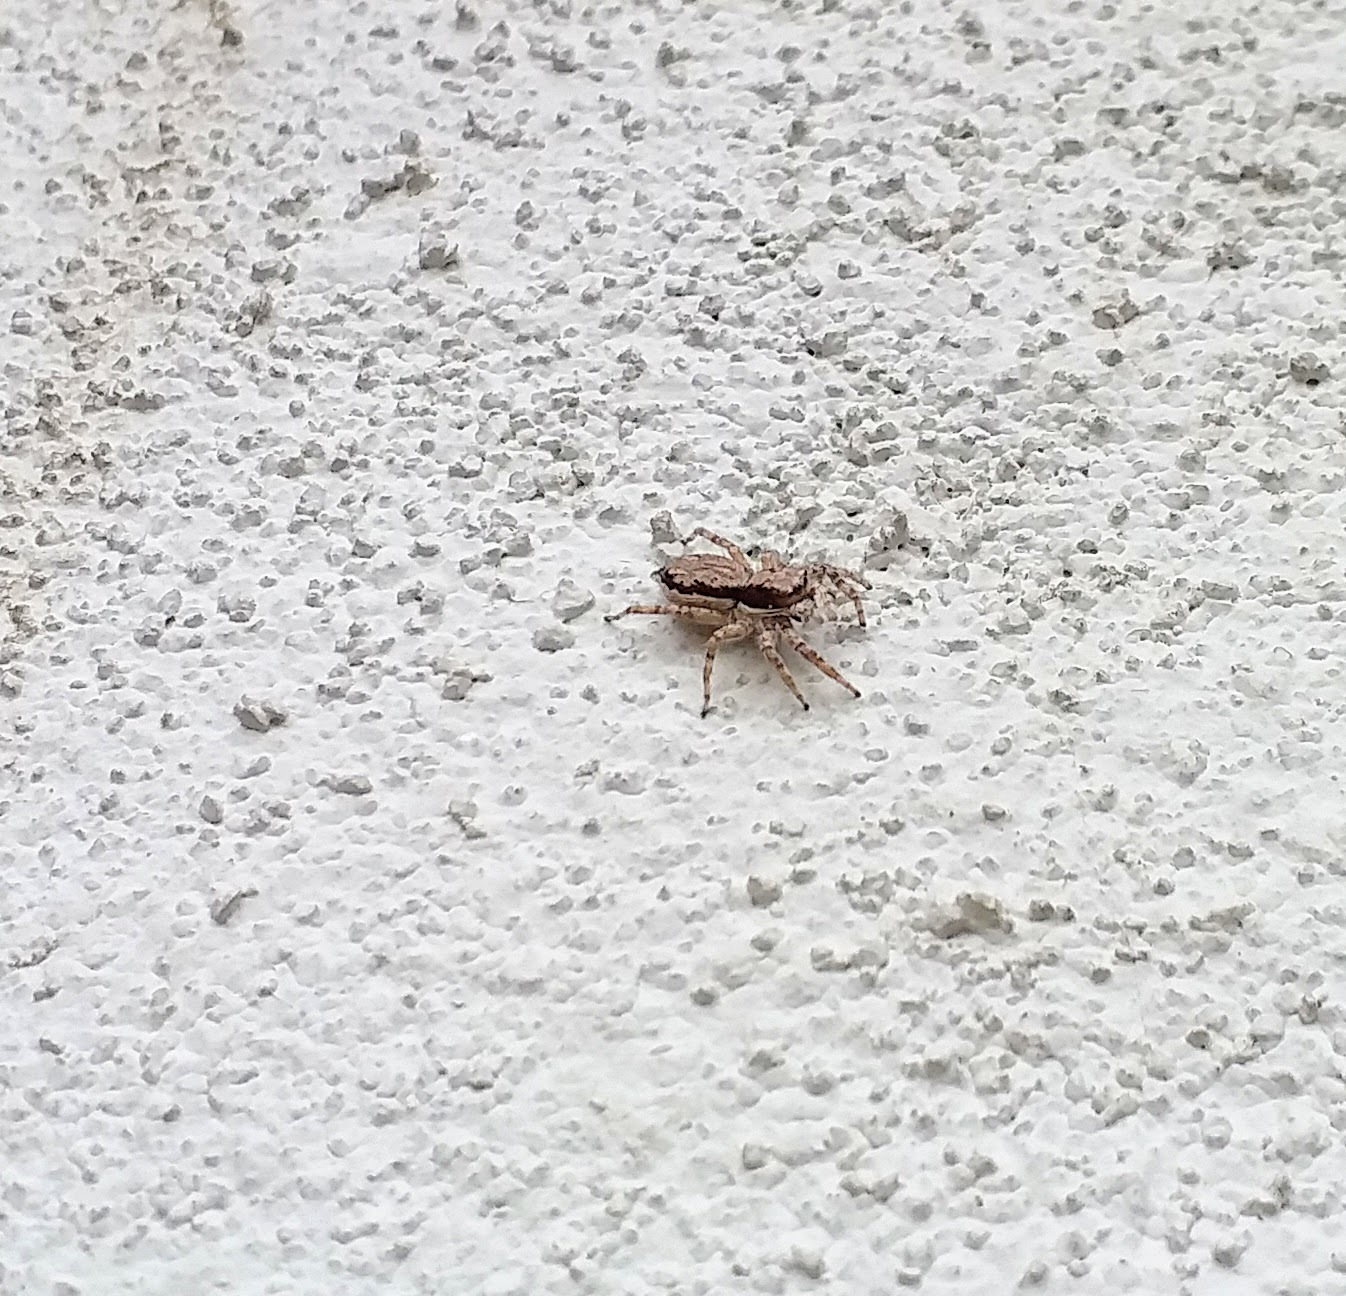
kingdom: Animalia
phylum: Arthropoda
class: Arachnida
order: Araneae
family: Salticidae
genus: Menemerus
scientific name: Menemerus bivittatus
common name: Gray wall jumper
